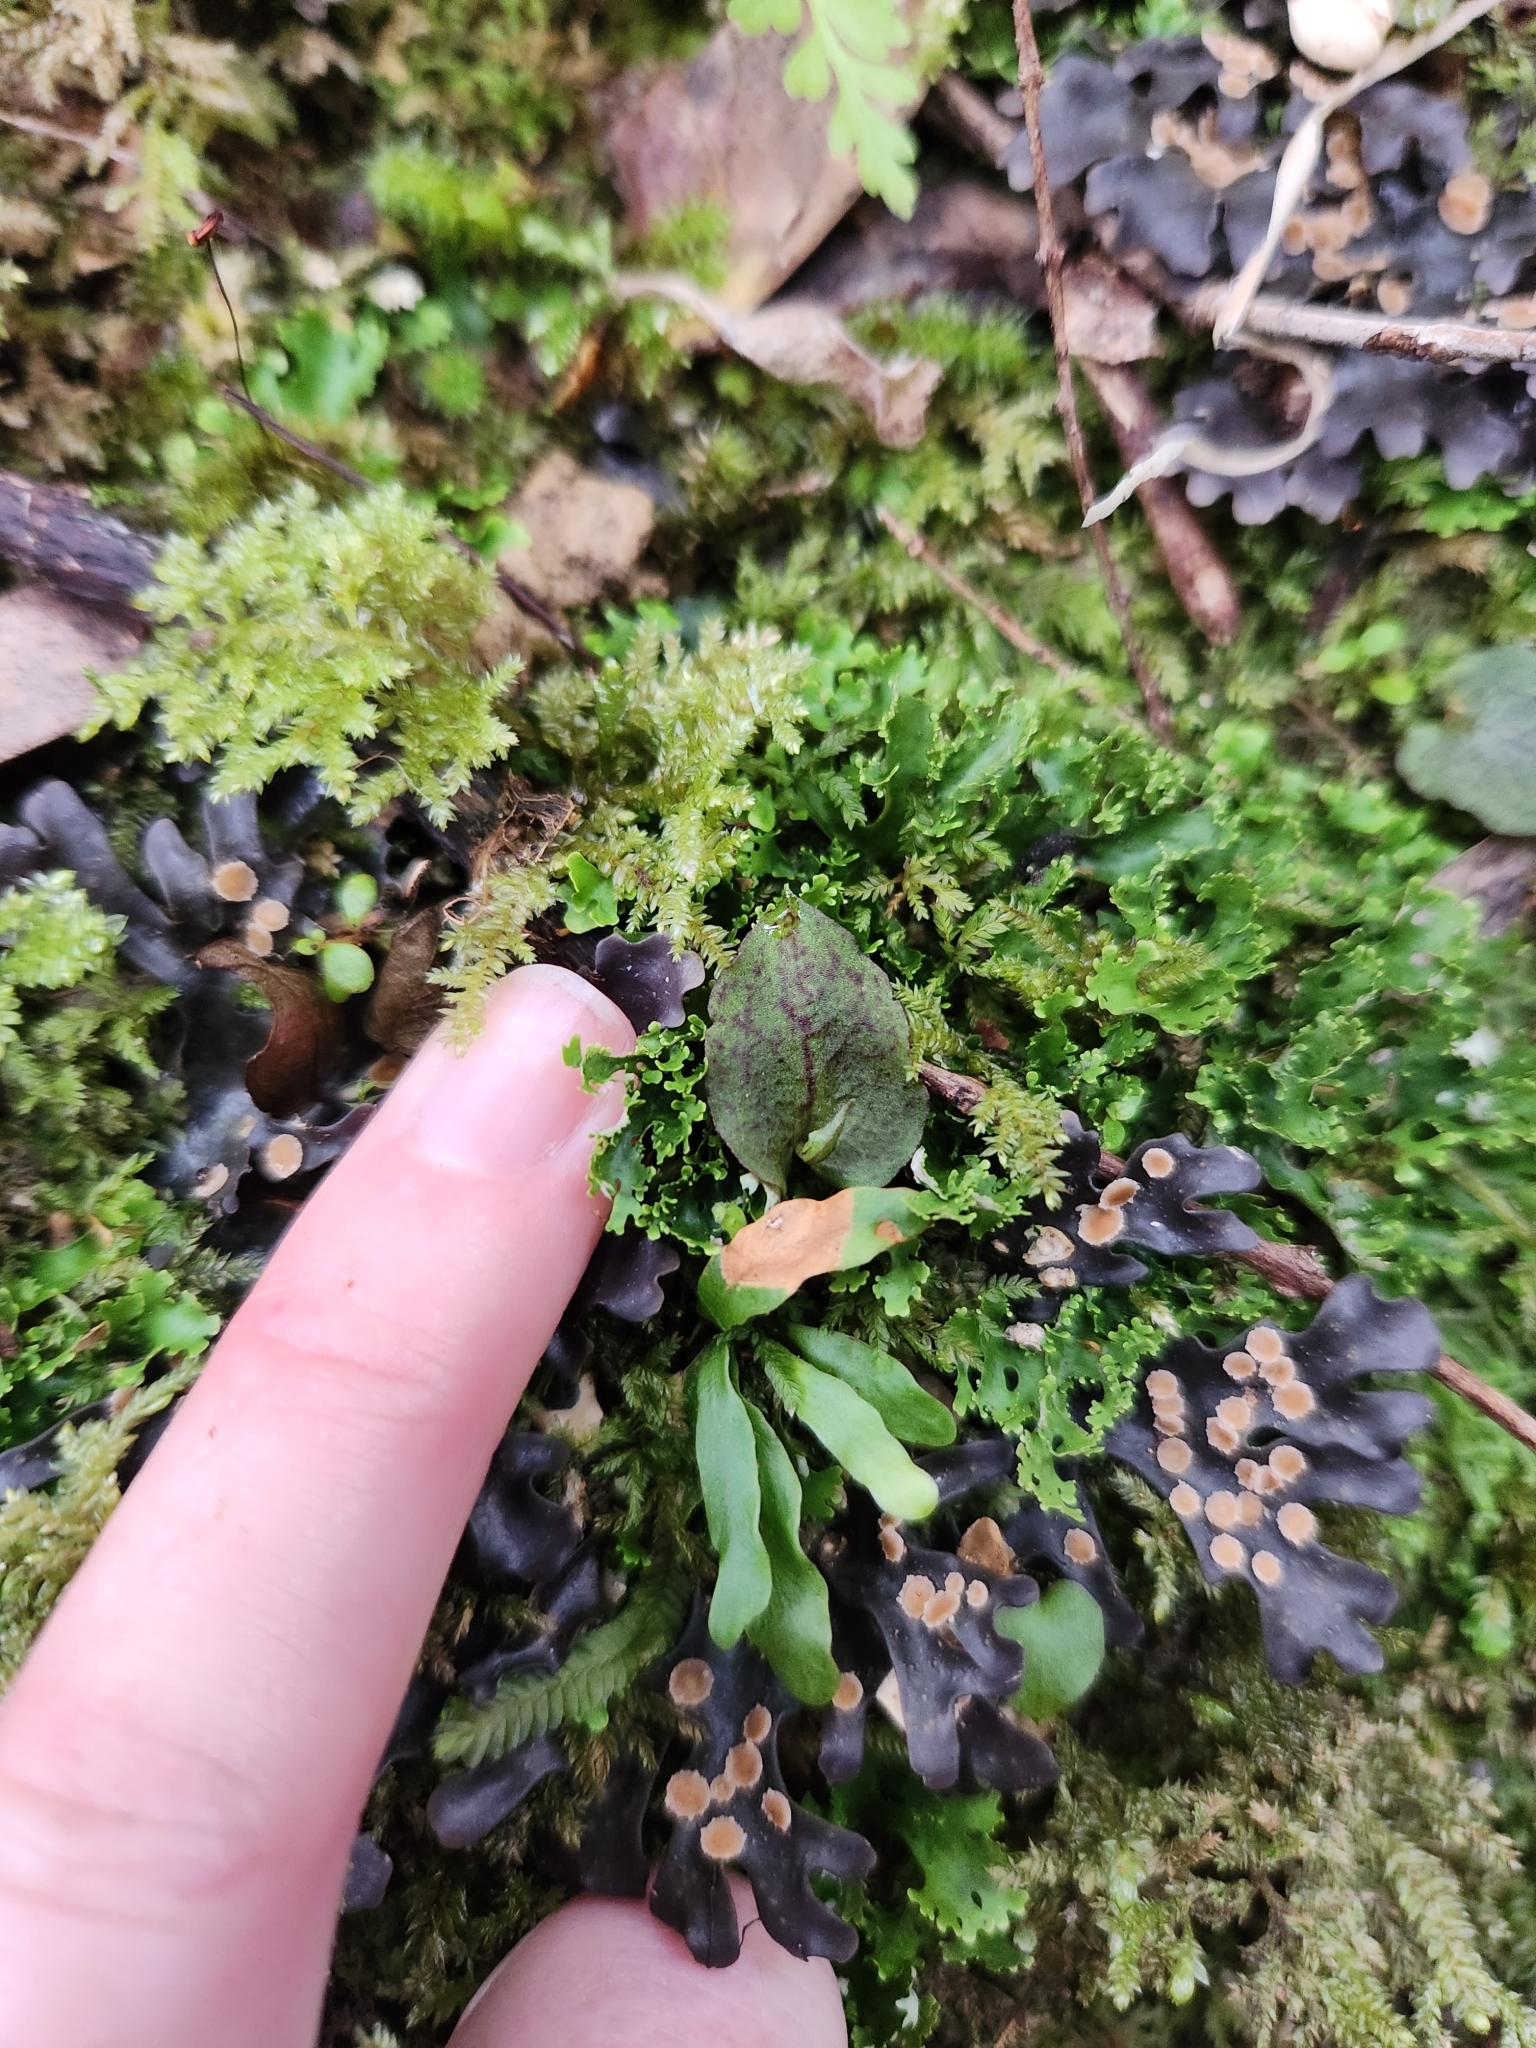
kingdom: Plantae
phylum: Tracheophyta
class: Liliopsida
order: Asparagales
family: Orchidaceae
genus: Corybas
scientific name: Corybas oblongus
